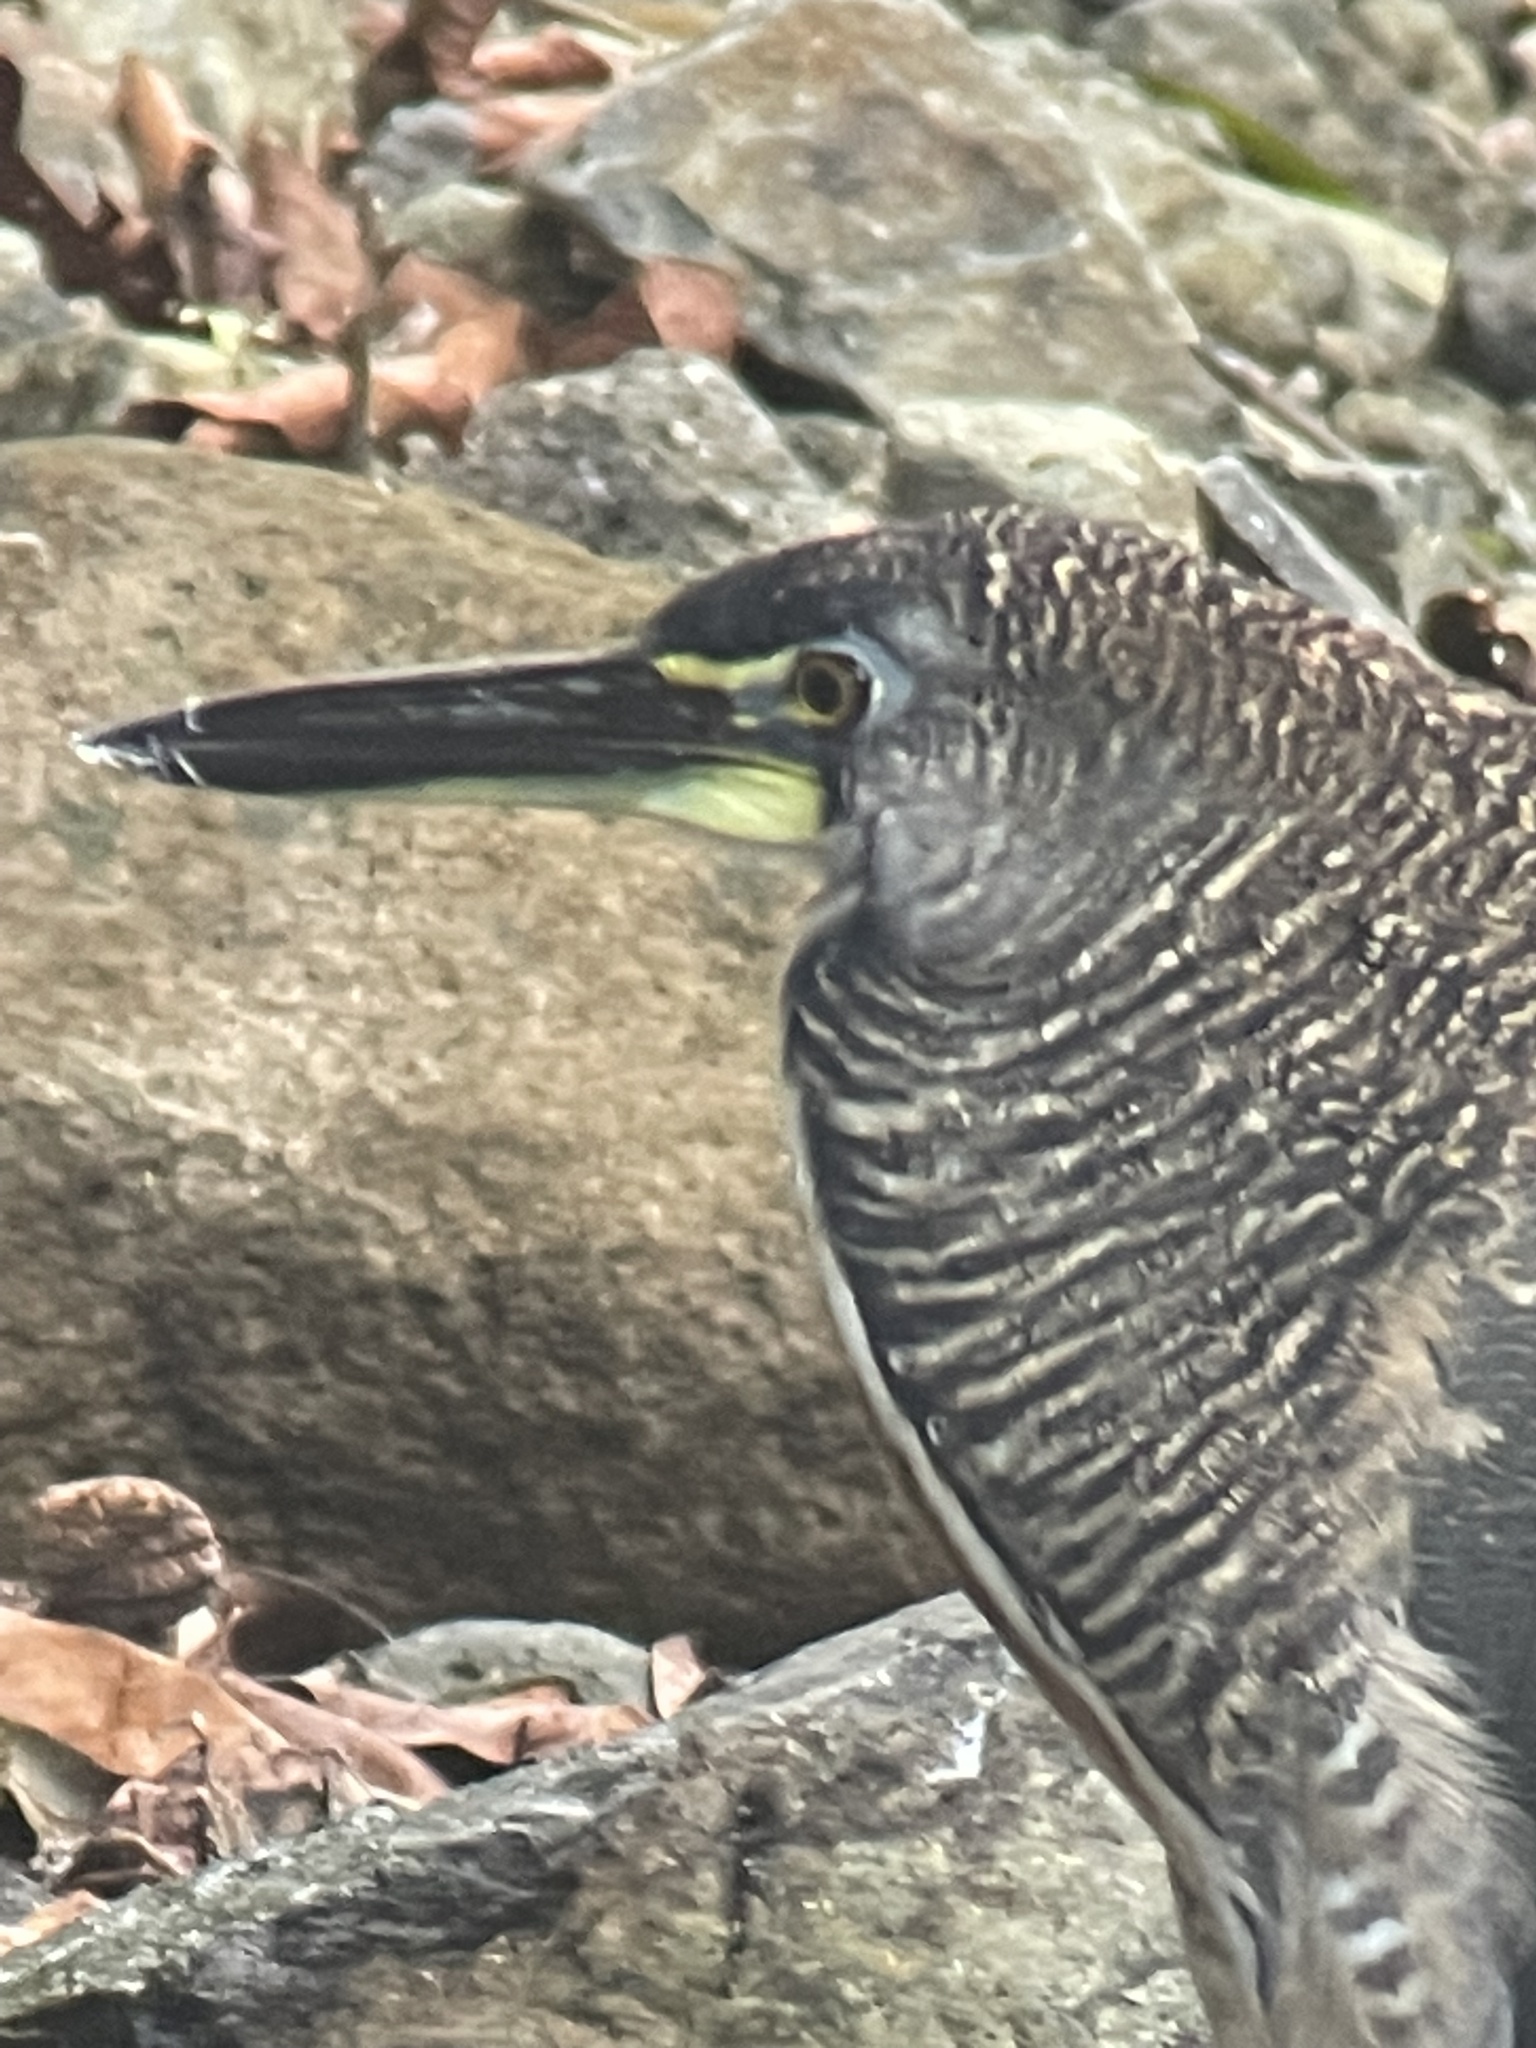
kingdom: Animalia
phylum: Chordata
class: Aves
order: Pelecaniformes
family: Ardeidae
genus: Tigrisoma
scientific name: Tigrisoma fasciatum
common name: Fasciated tiger-heron
